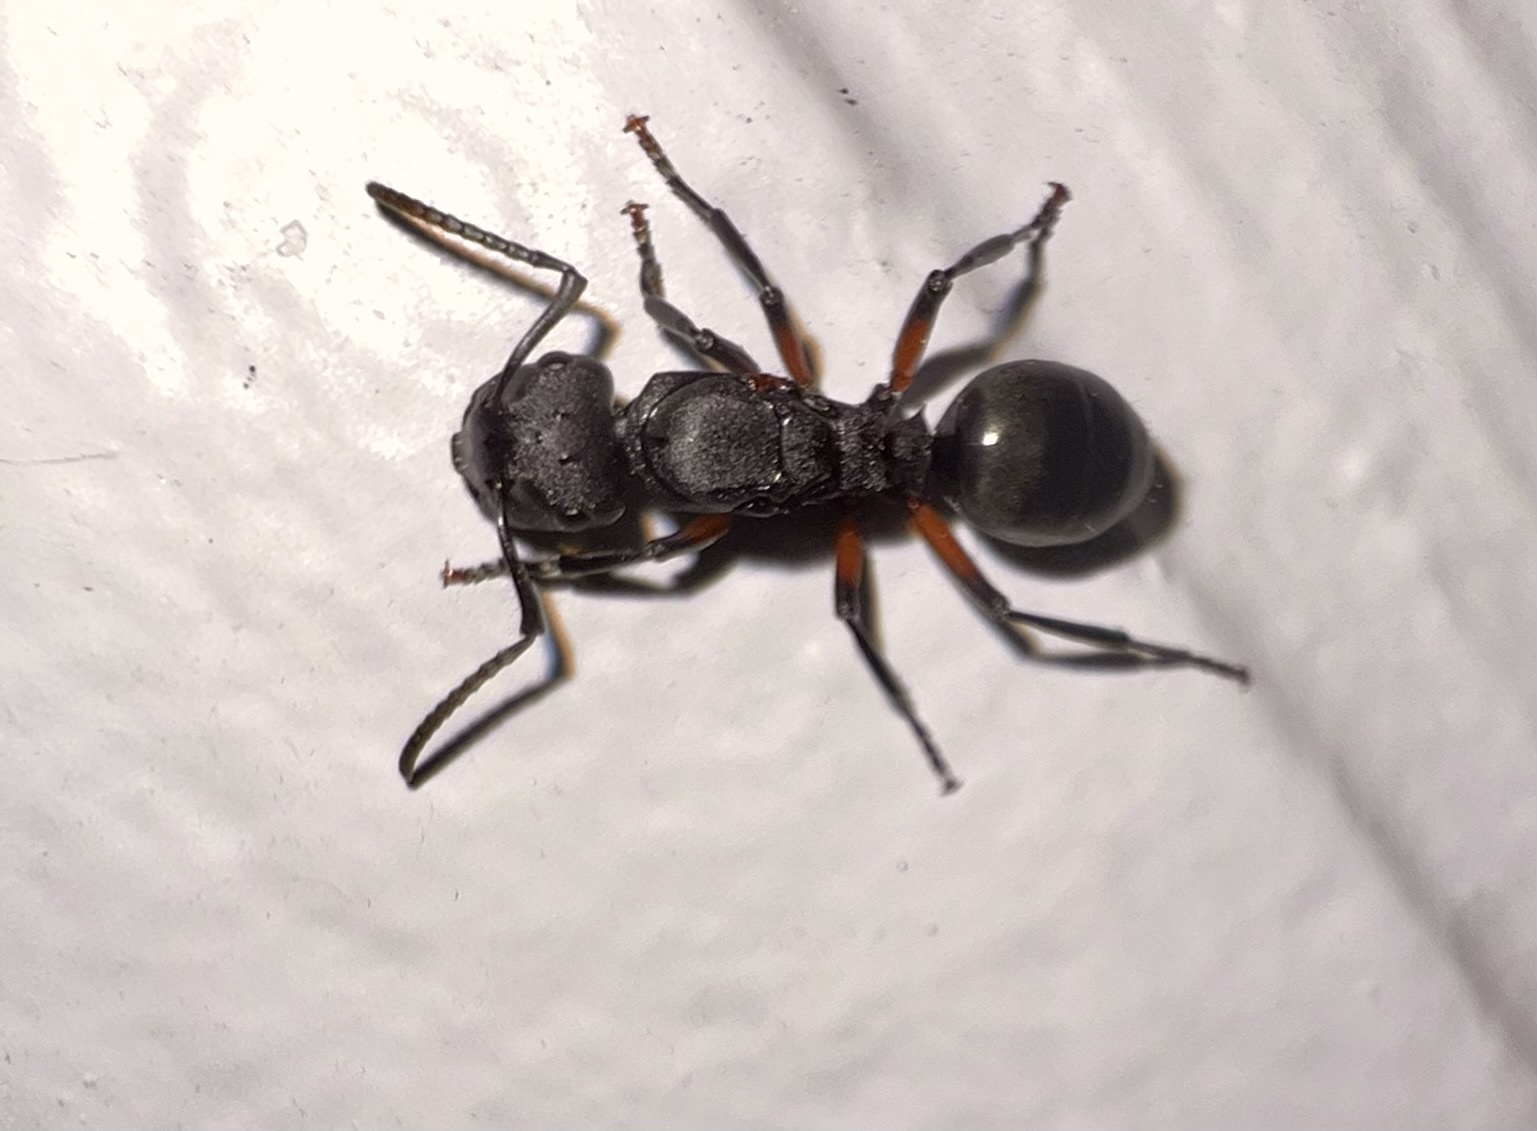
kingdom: Animalia
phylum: Arthropoda
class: Insecta
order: Hymenoptera
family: Formicidae
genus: Polyrhachis
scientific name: Polyrhachis femorata
